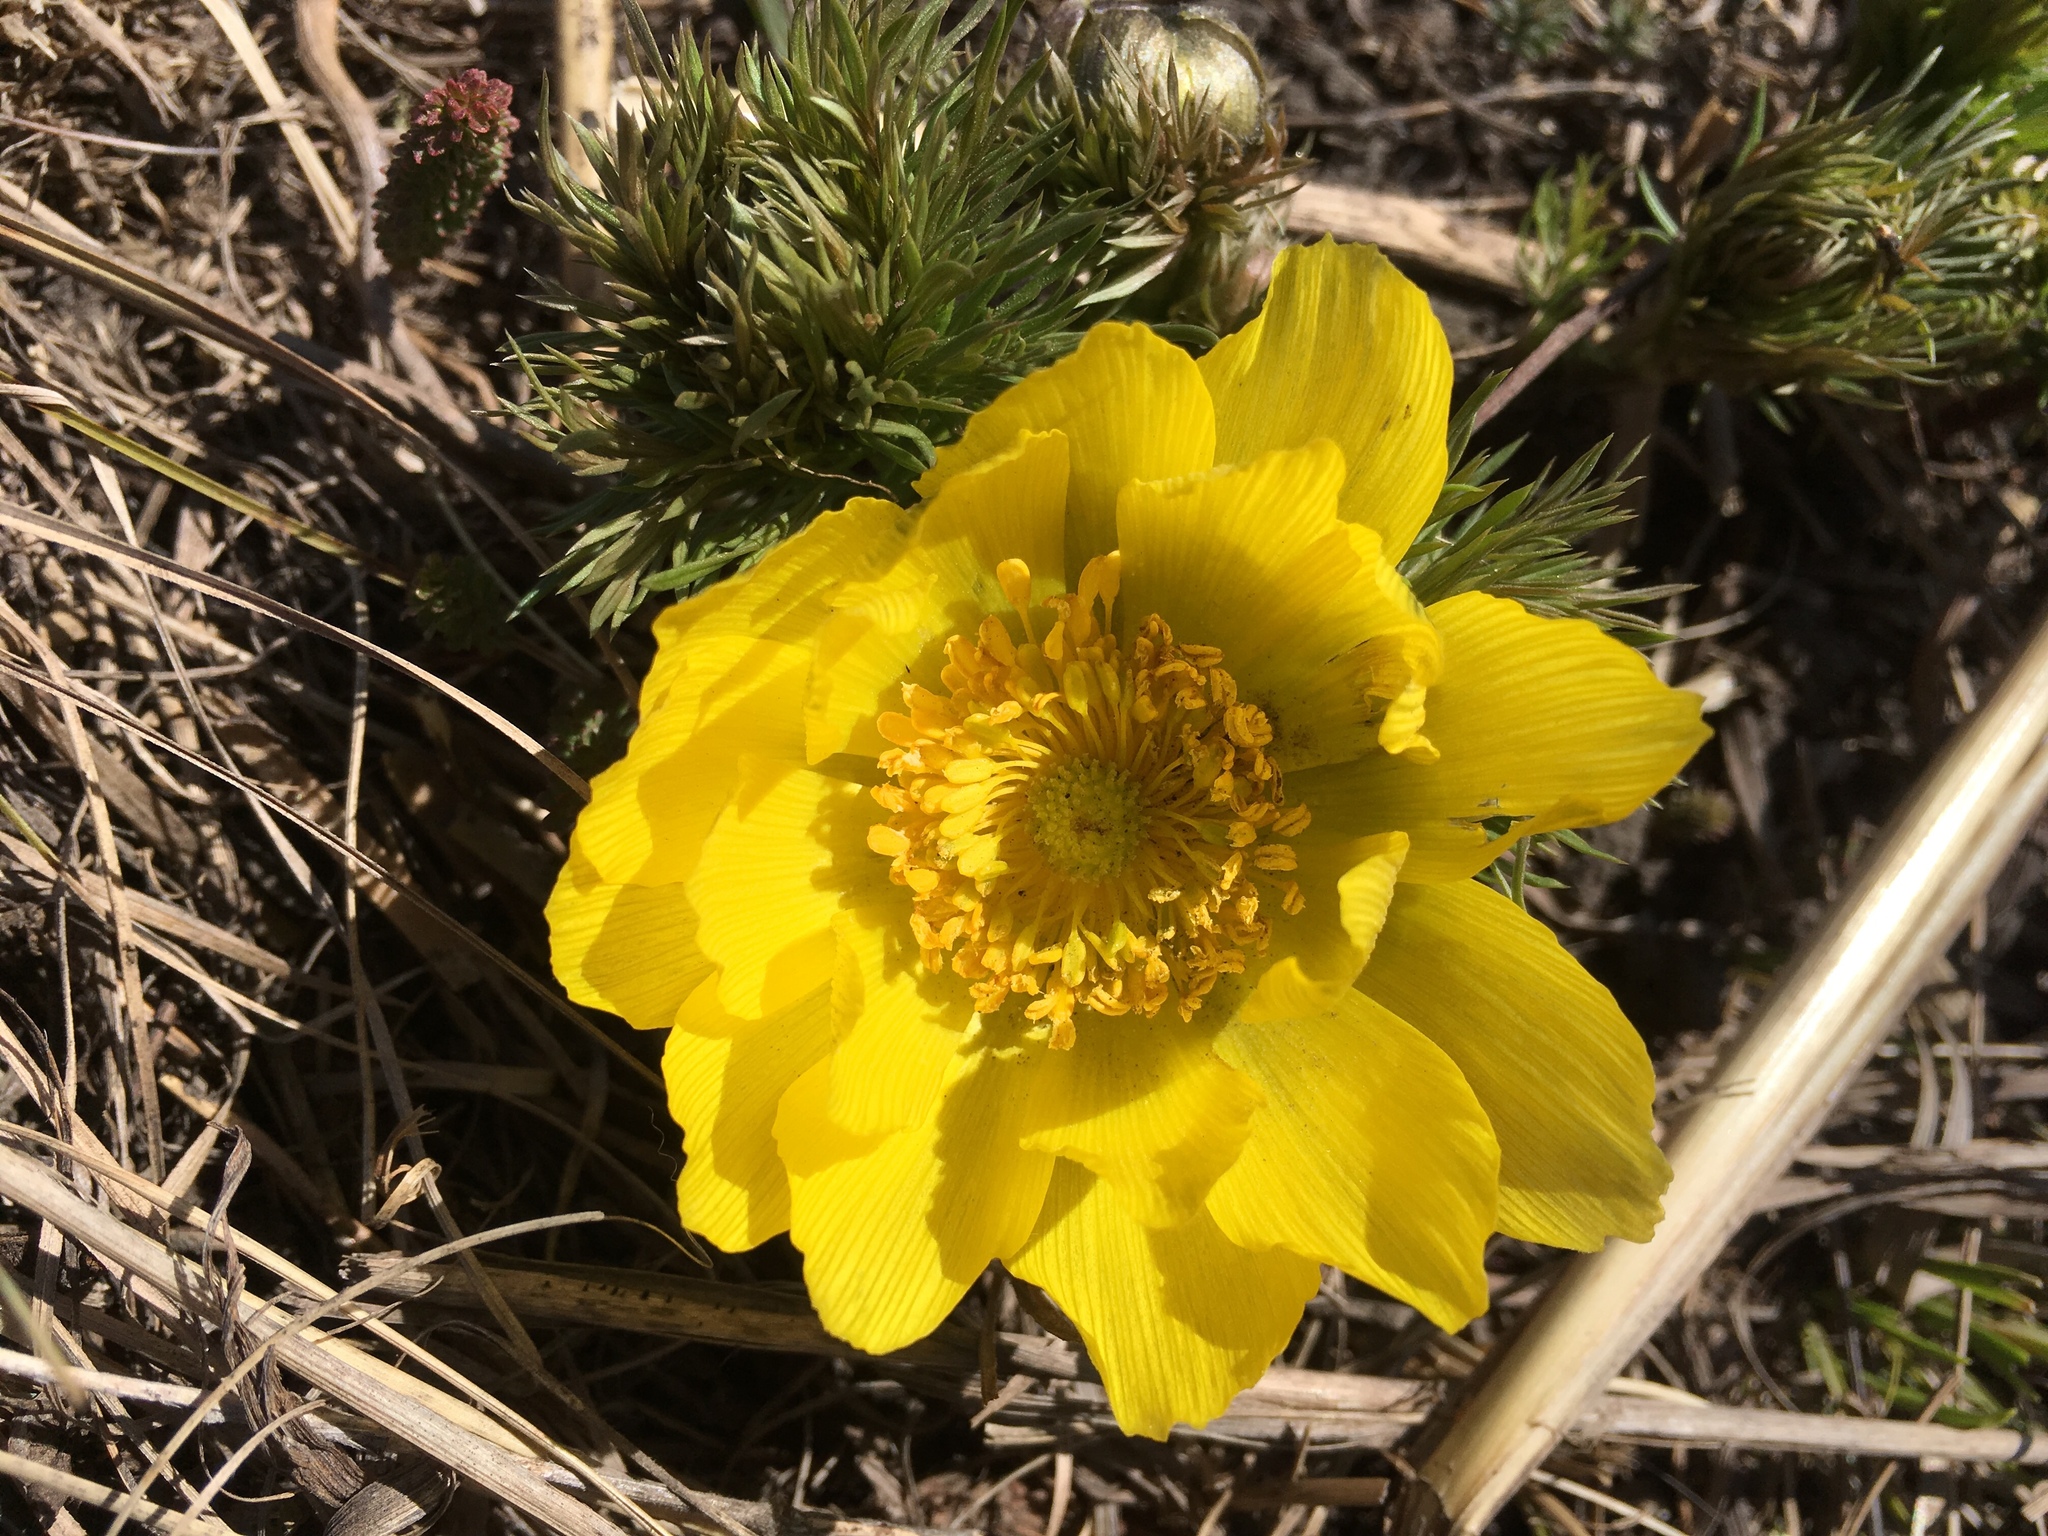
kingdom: Plantae
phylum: Tracheophyta
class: Magnoliopsida
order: Ranunculales
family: Ranunculaceae
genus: Adonis
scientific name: Adonis vernalis
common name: Yellow pheasants-eye
